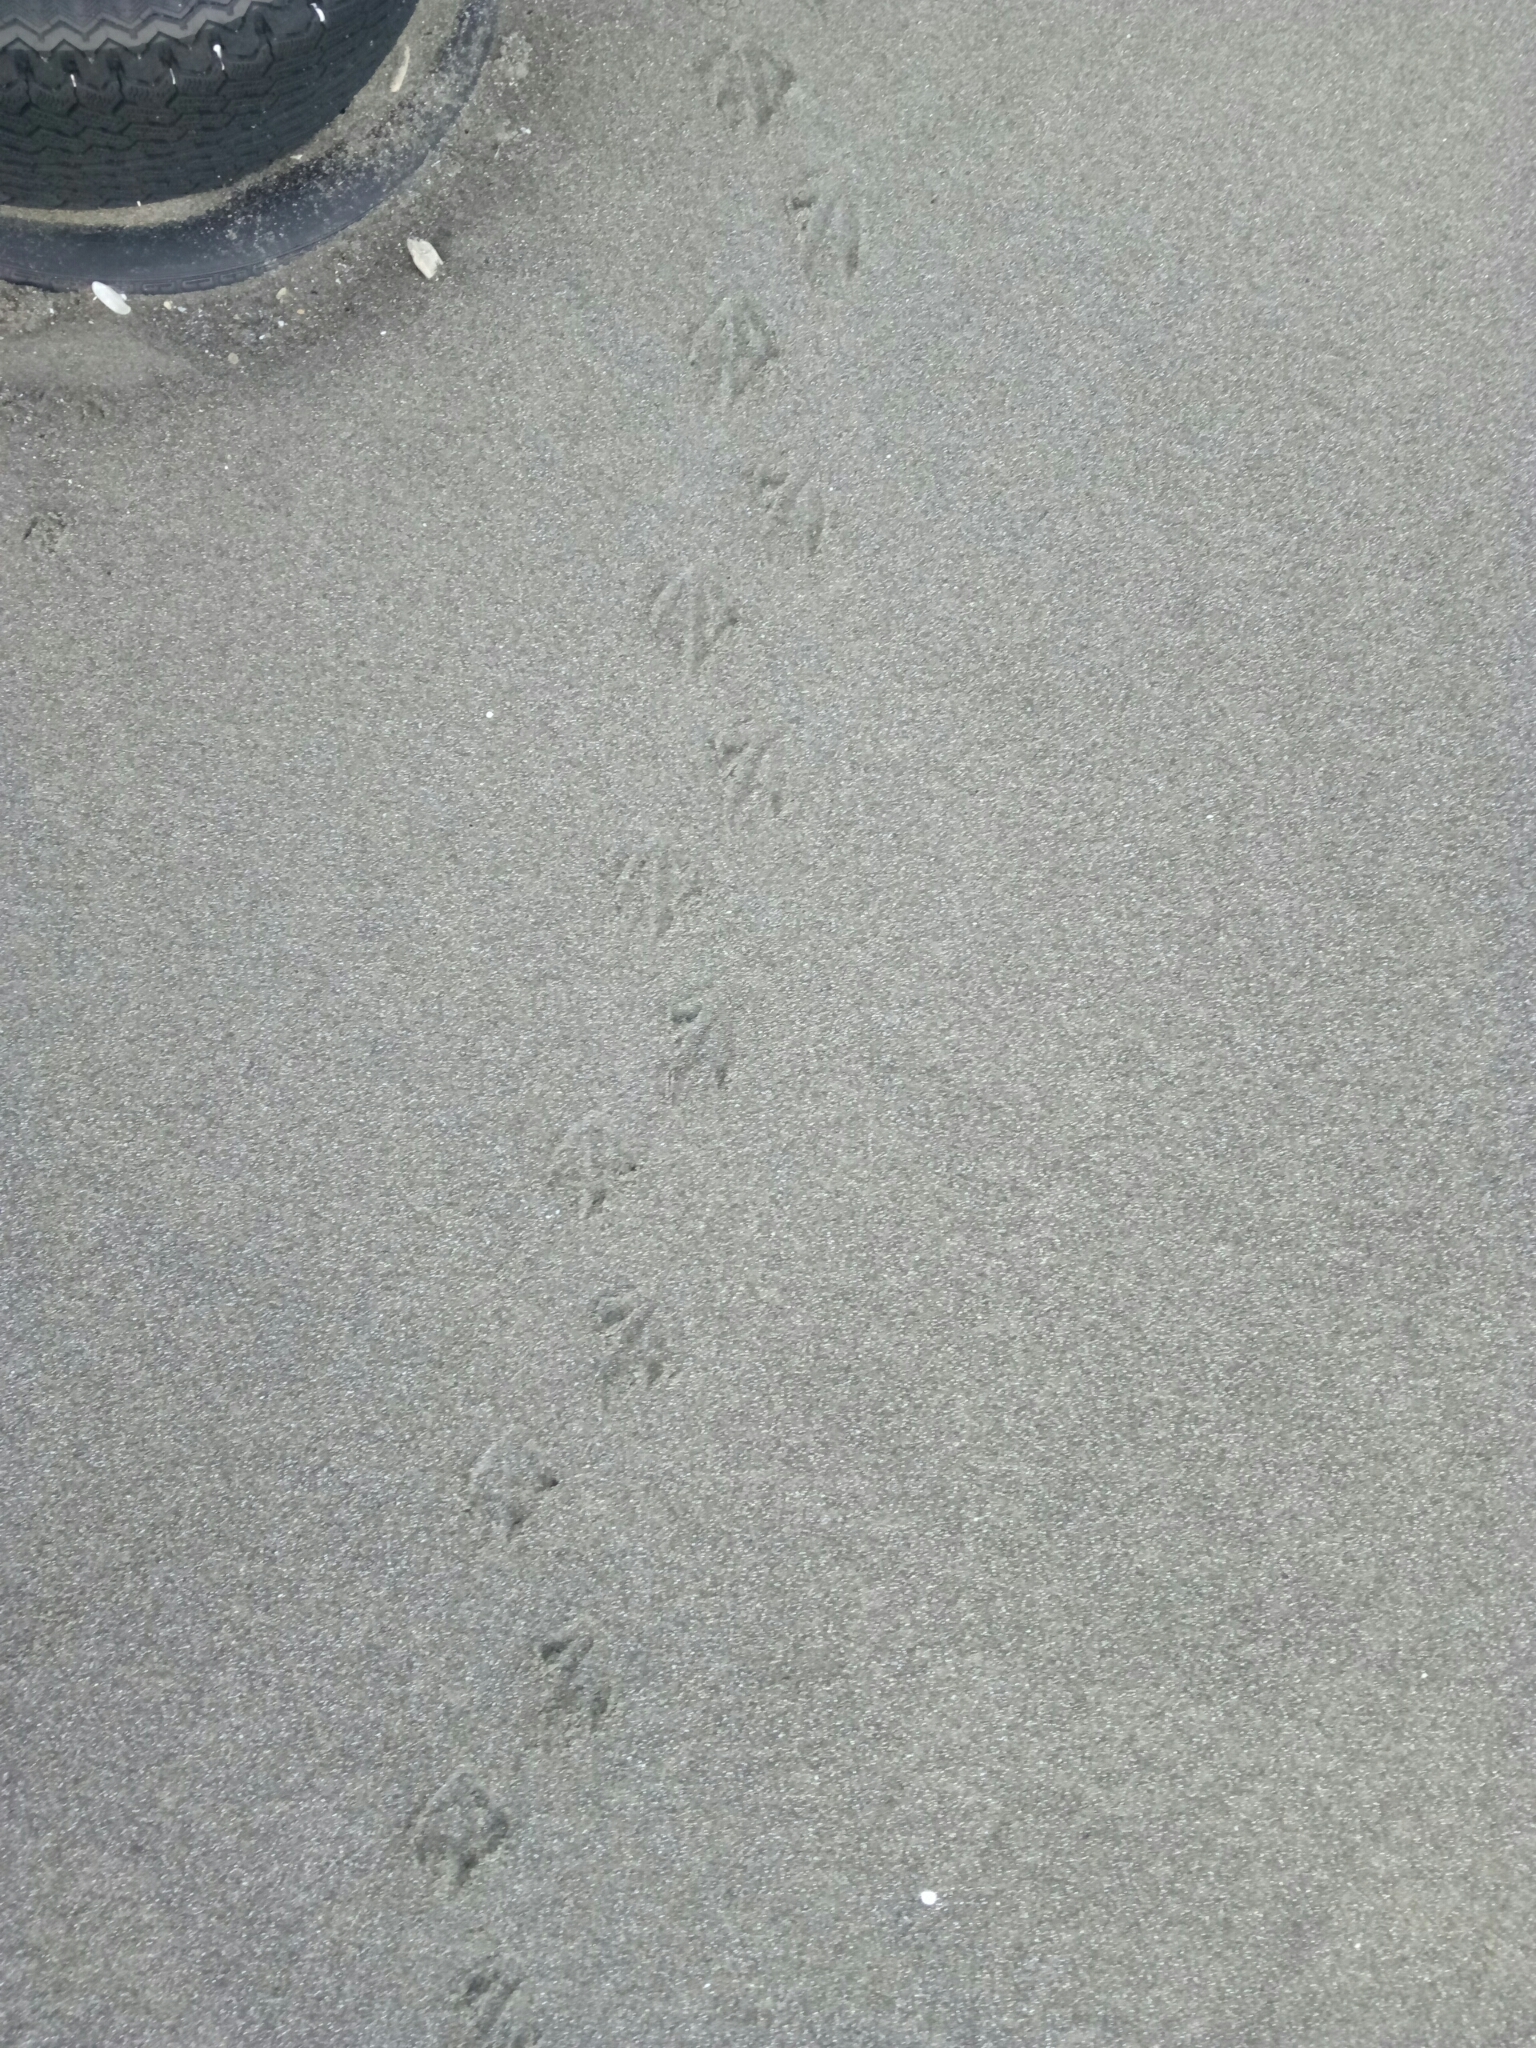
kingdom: Animalia
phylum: Chordata
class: Aves
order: Sphenisciformes
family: Spheniscidae
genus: Eudyptula
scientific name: Eudyptula minor
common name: Little penguin
